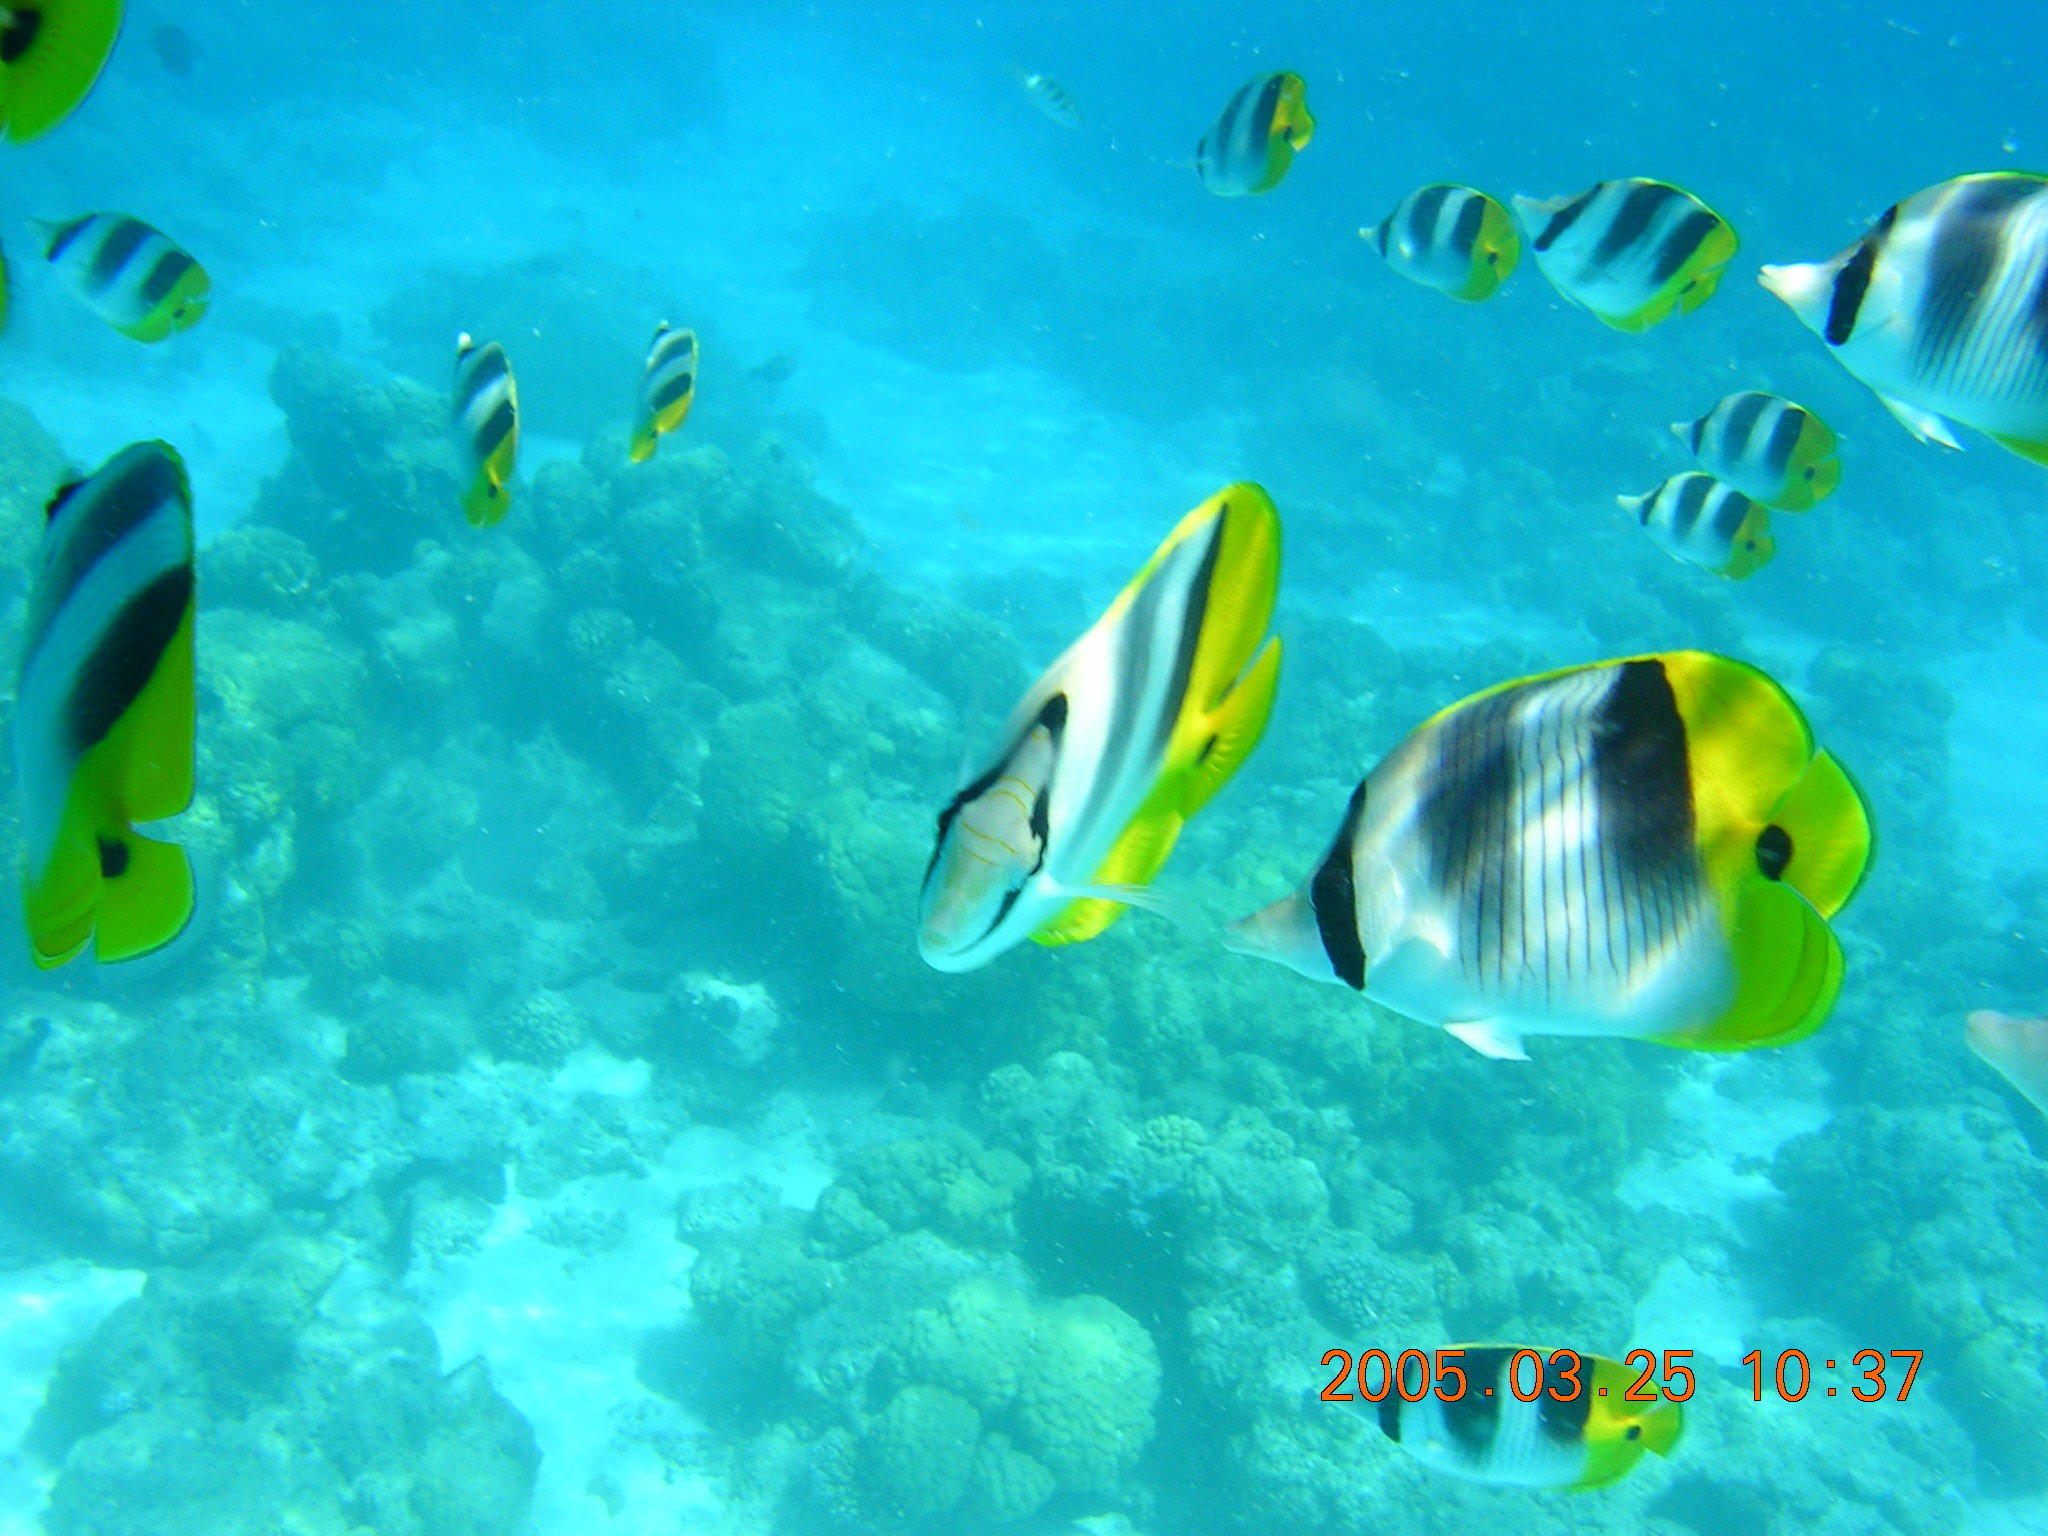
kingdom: Animalia
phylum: Chordata
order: Perciformes
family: Chaetodontidae
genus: Chaetodon
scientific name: Chaetodon ulietensis
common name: Pacific double-saddle butterflyfish
